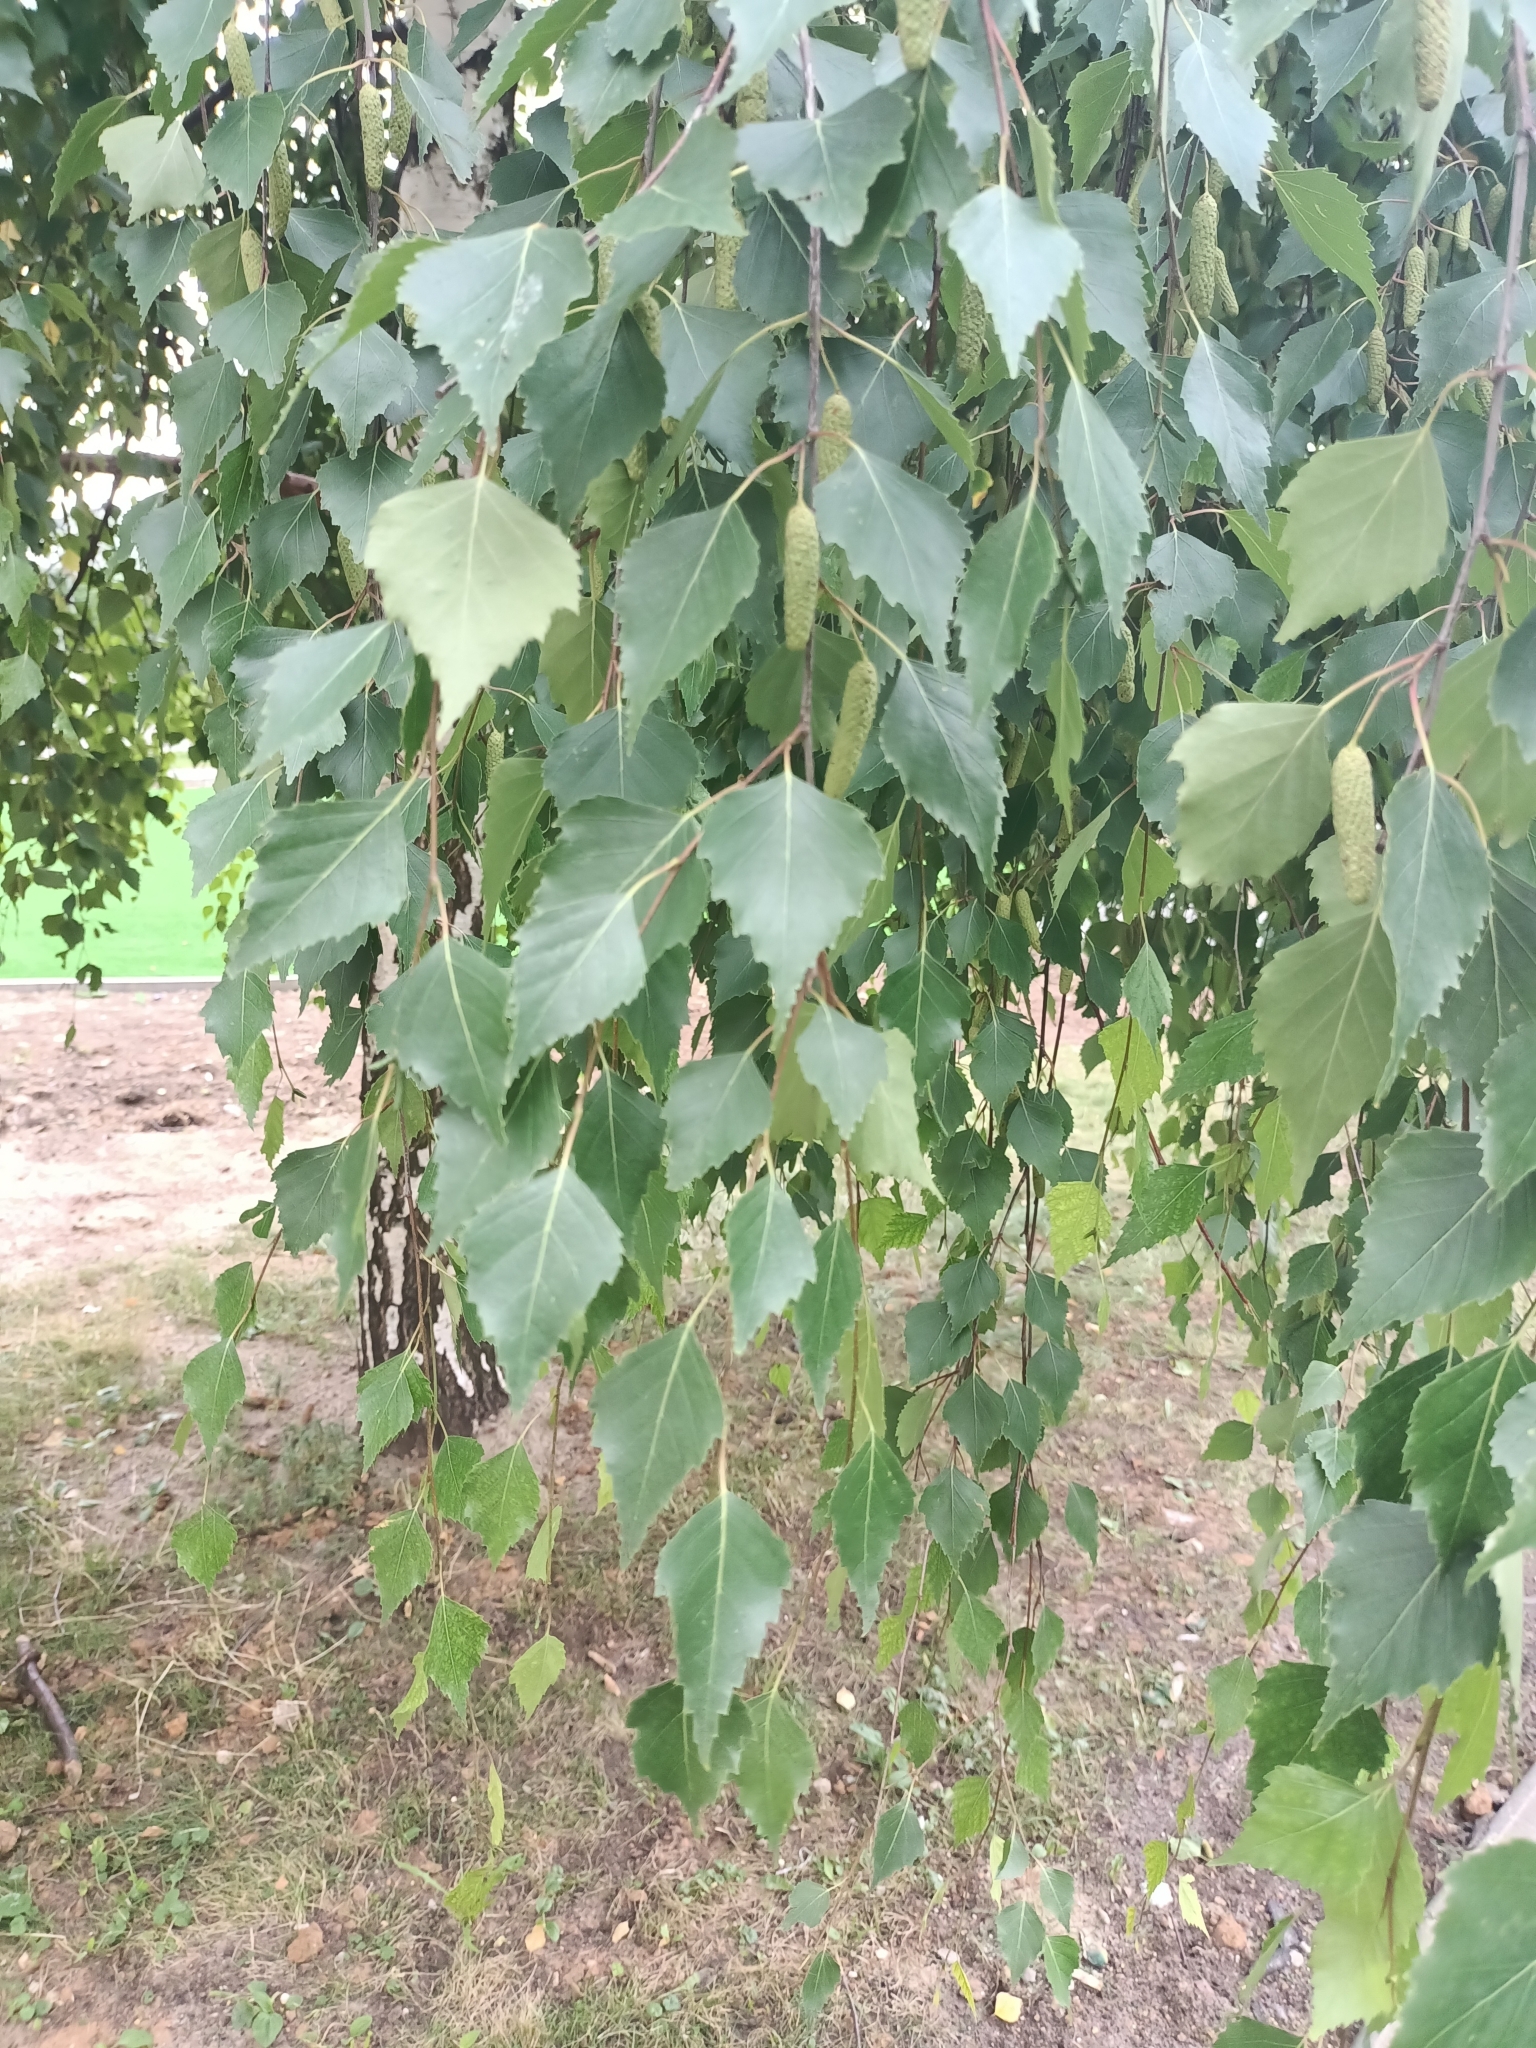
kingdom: Plantae
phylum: Tracheophyta
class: Magnoliopsida
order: Fagales
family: Betulaceae
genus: Betula
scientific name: Betula pendula
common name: Silver birch
